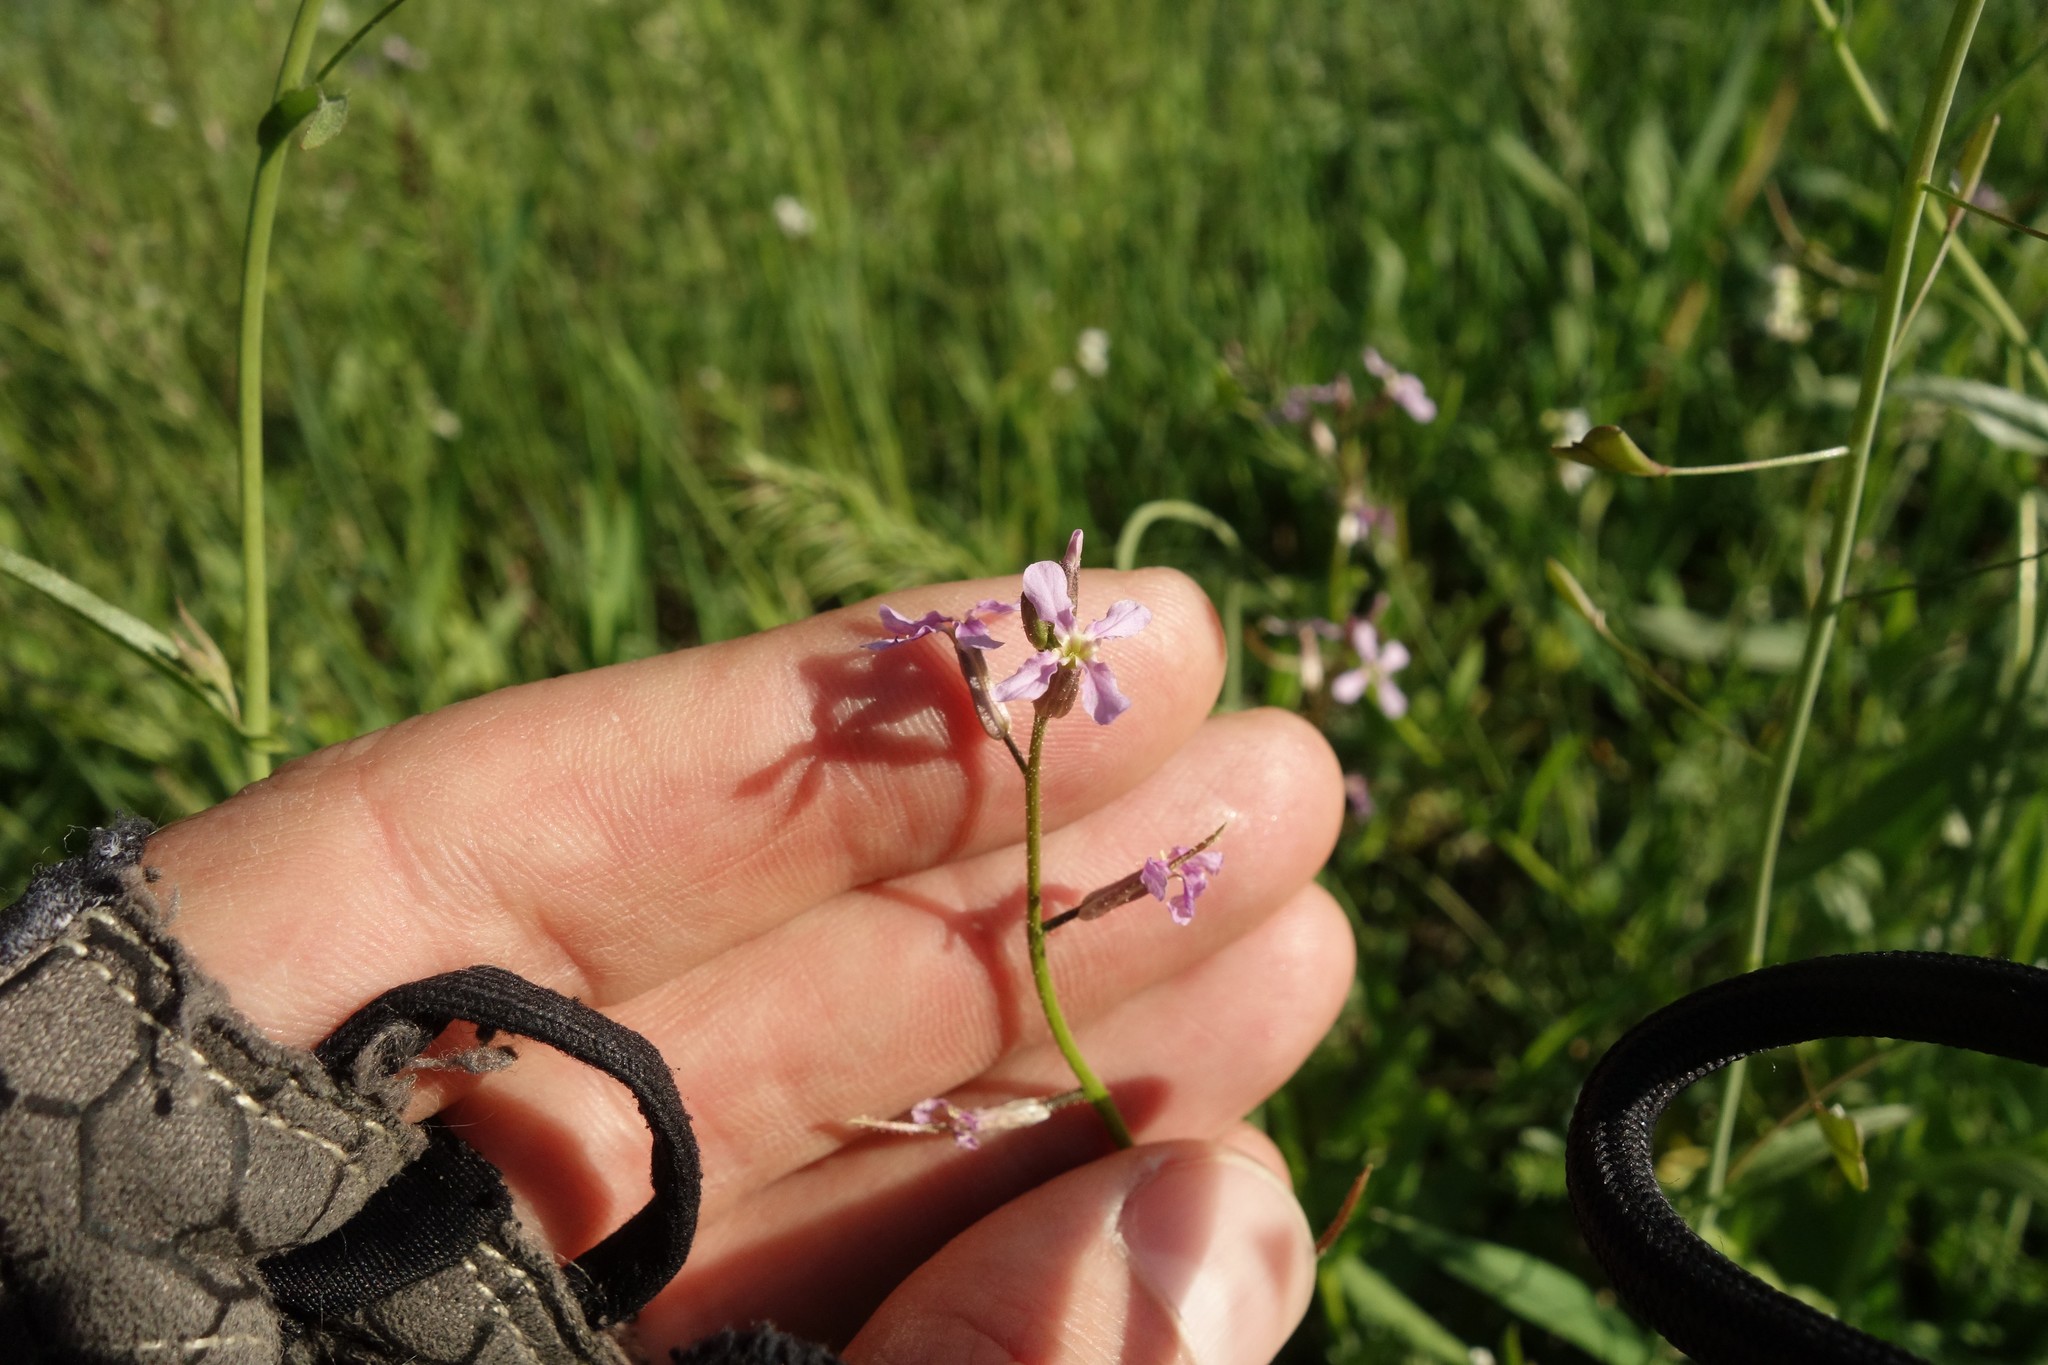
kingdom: Plantae
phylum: Tracheophyta
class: Magnoliopsida
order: Brassicales
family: Brassicaceae
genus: Chorispora
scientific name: Chorispora tenella
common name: Crossflower
